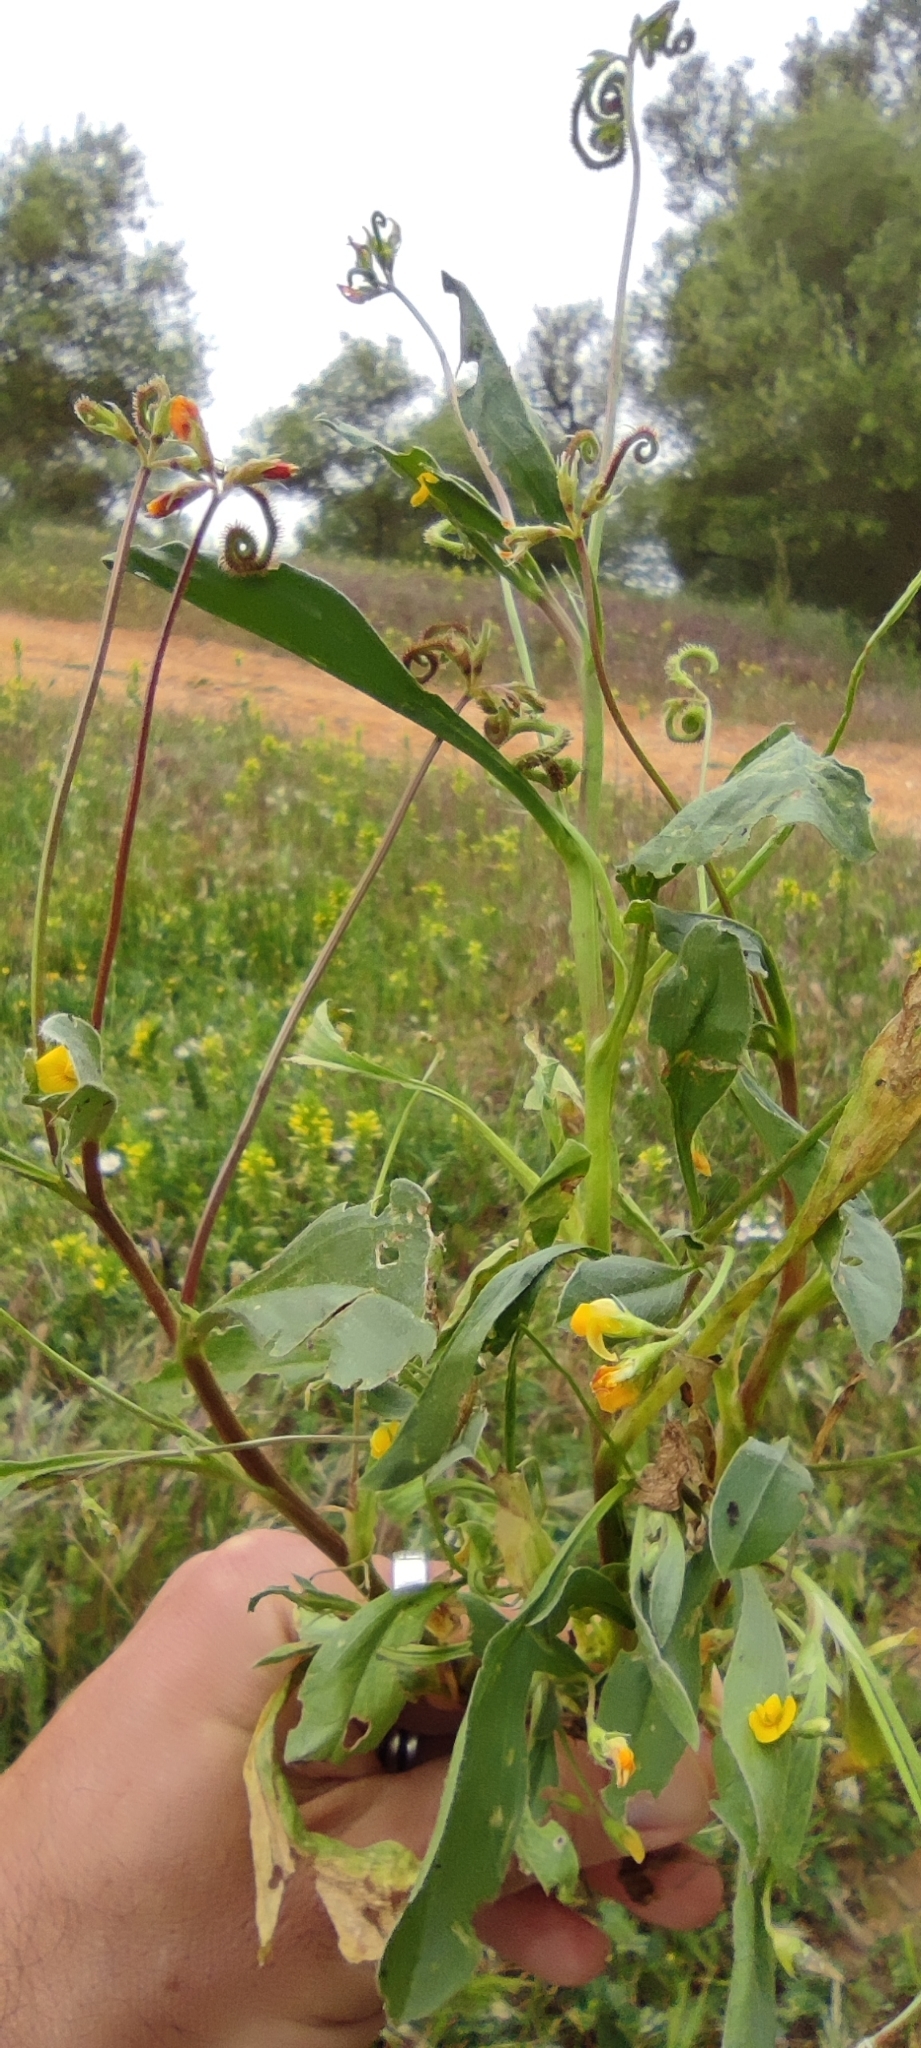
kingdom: Plantae
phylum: Tracheophyta
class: Magnoliopsida
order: Fabales
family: Fabaceae
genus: Scorpiurus
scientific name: Scorpiurus muricatus
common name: Caterpillar-plant
